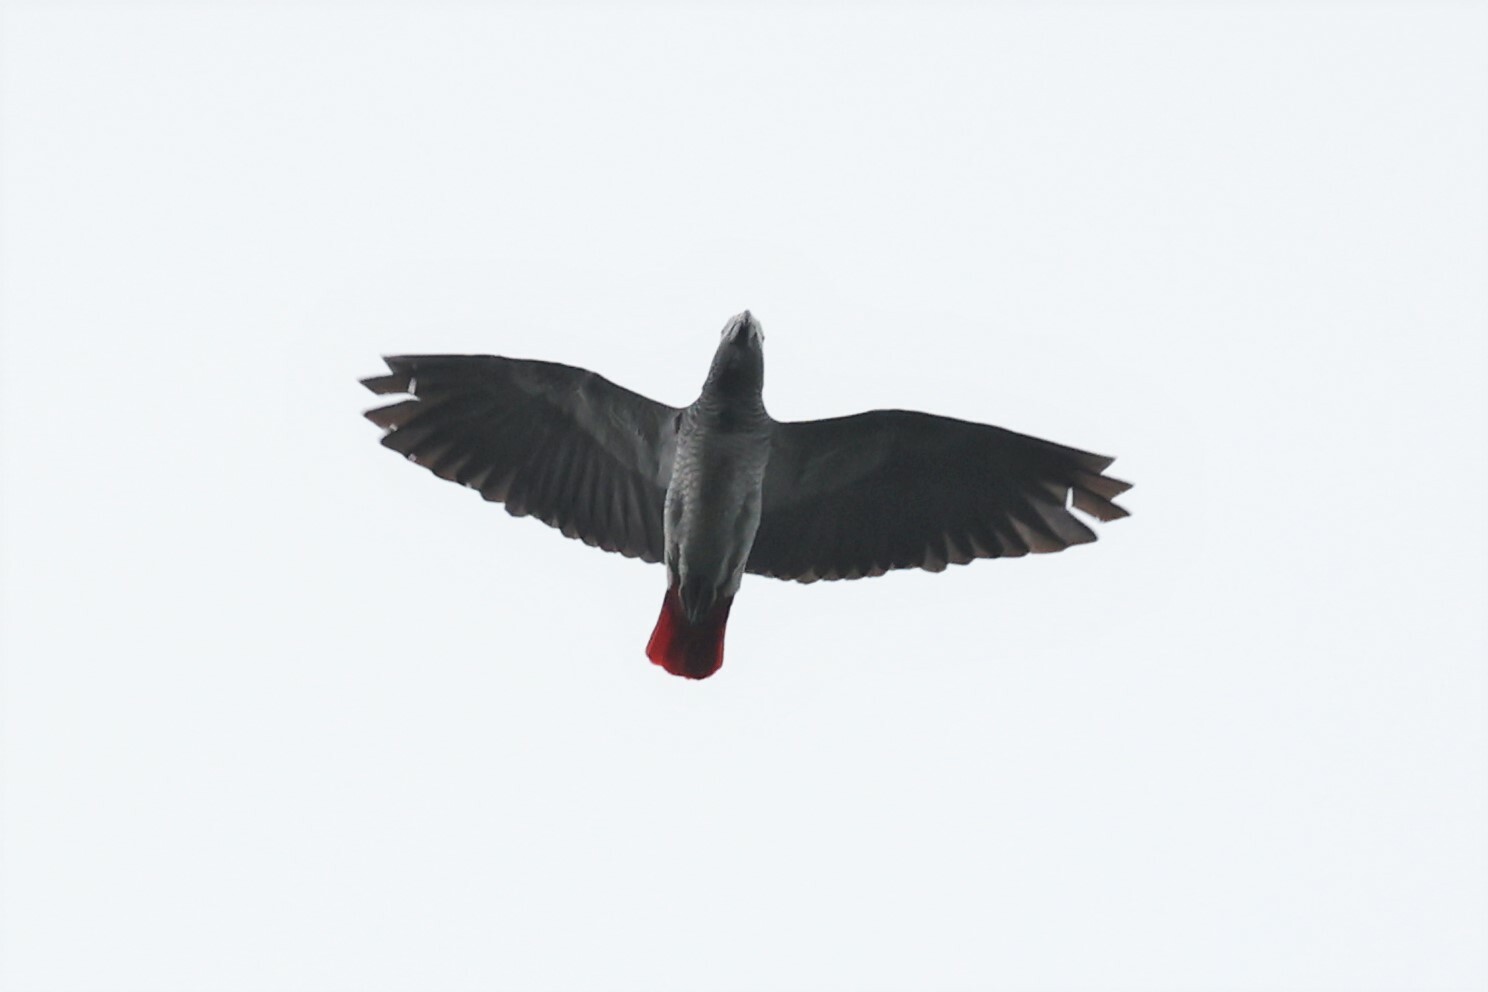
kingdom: Animalia
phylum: Chordata
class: Aves
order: Psittaciformes
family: Psittacidae
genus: Psittacus
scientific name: Psittacus erithacus
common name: Grey parrot
